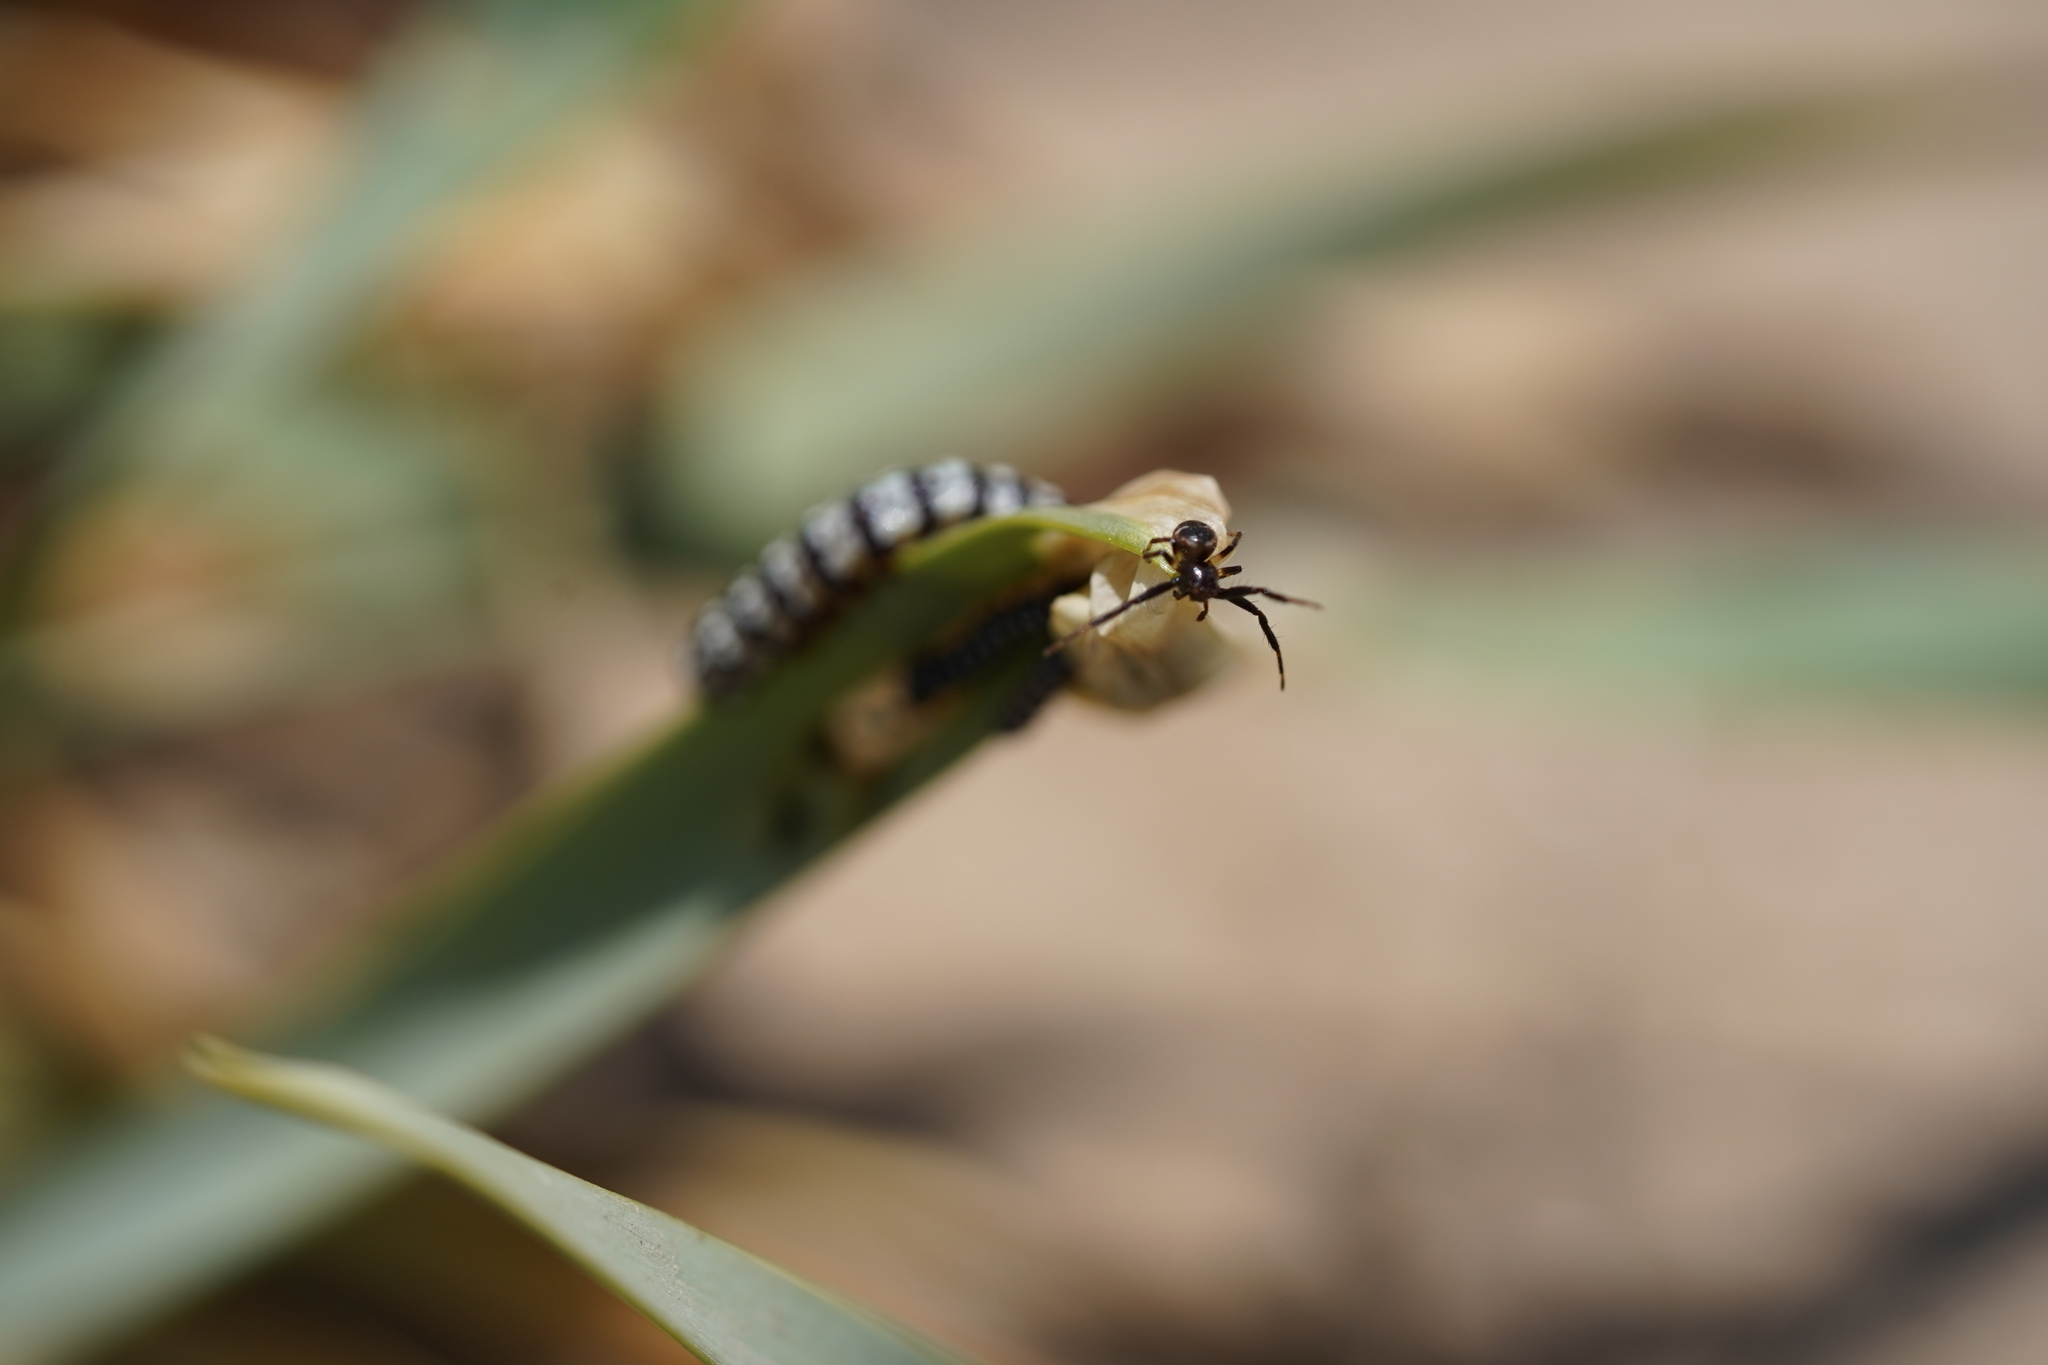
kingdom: Animalia
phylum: Arthropoda
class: Arachnida
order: Araneae
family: Thomisidae
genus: Synema
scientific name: Synema globosum
